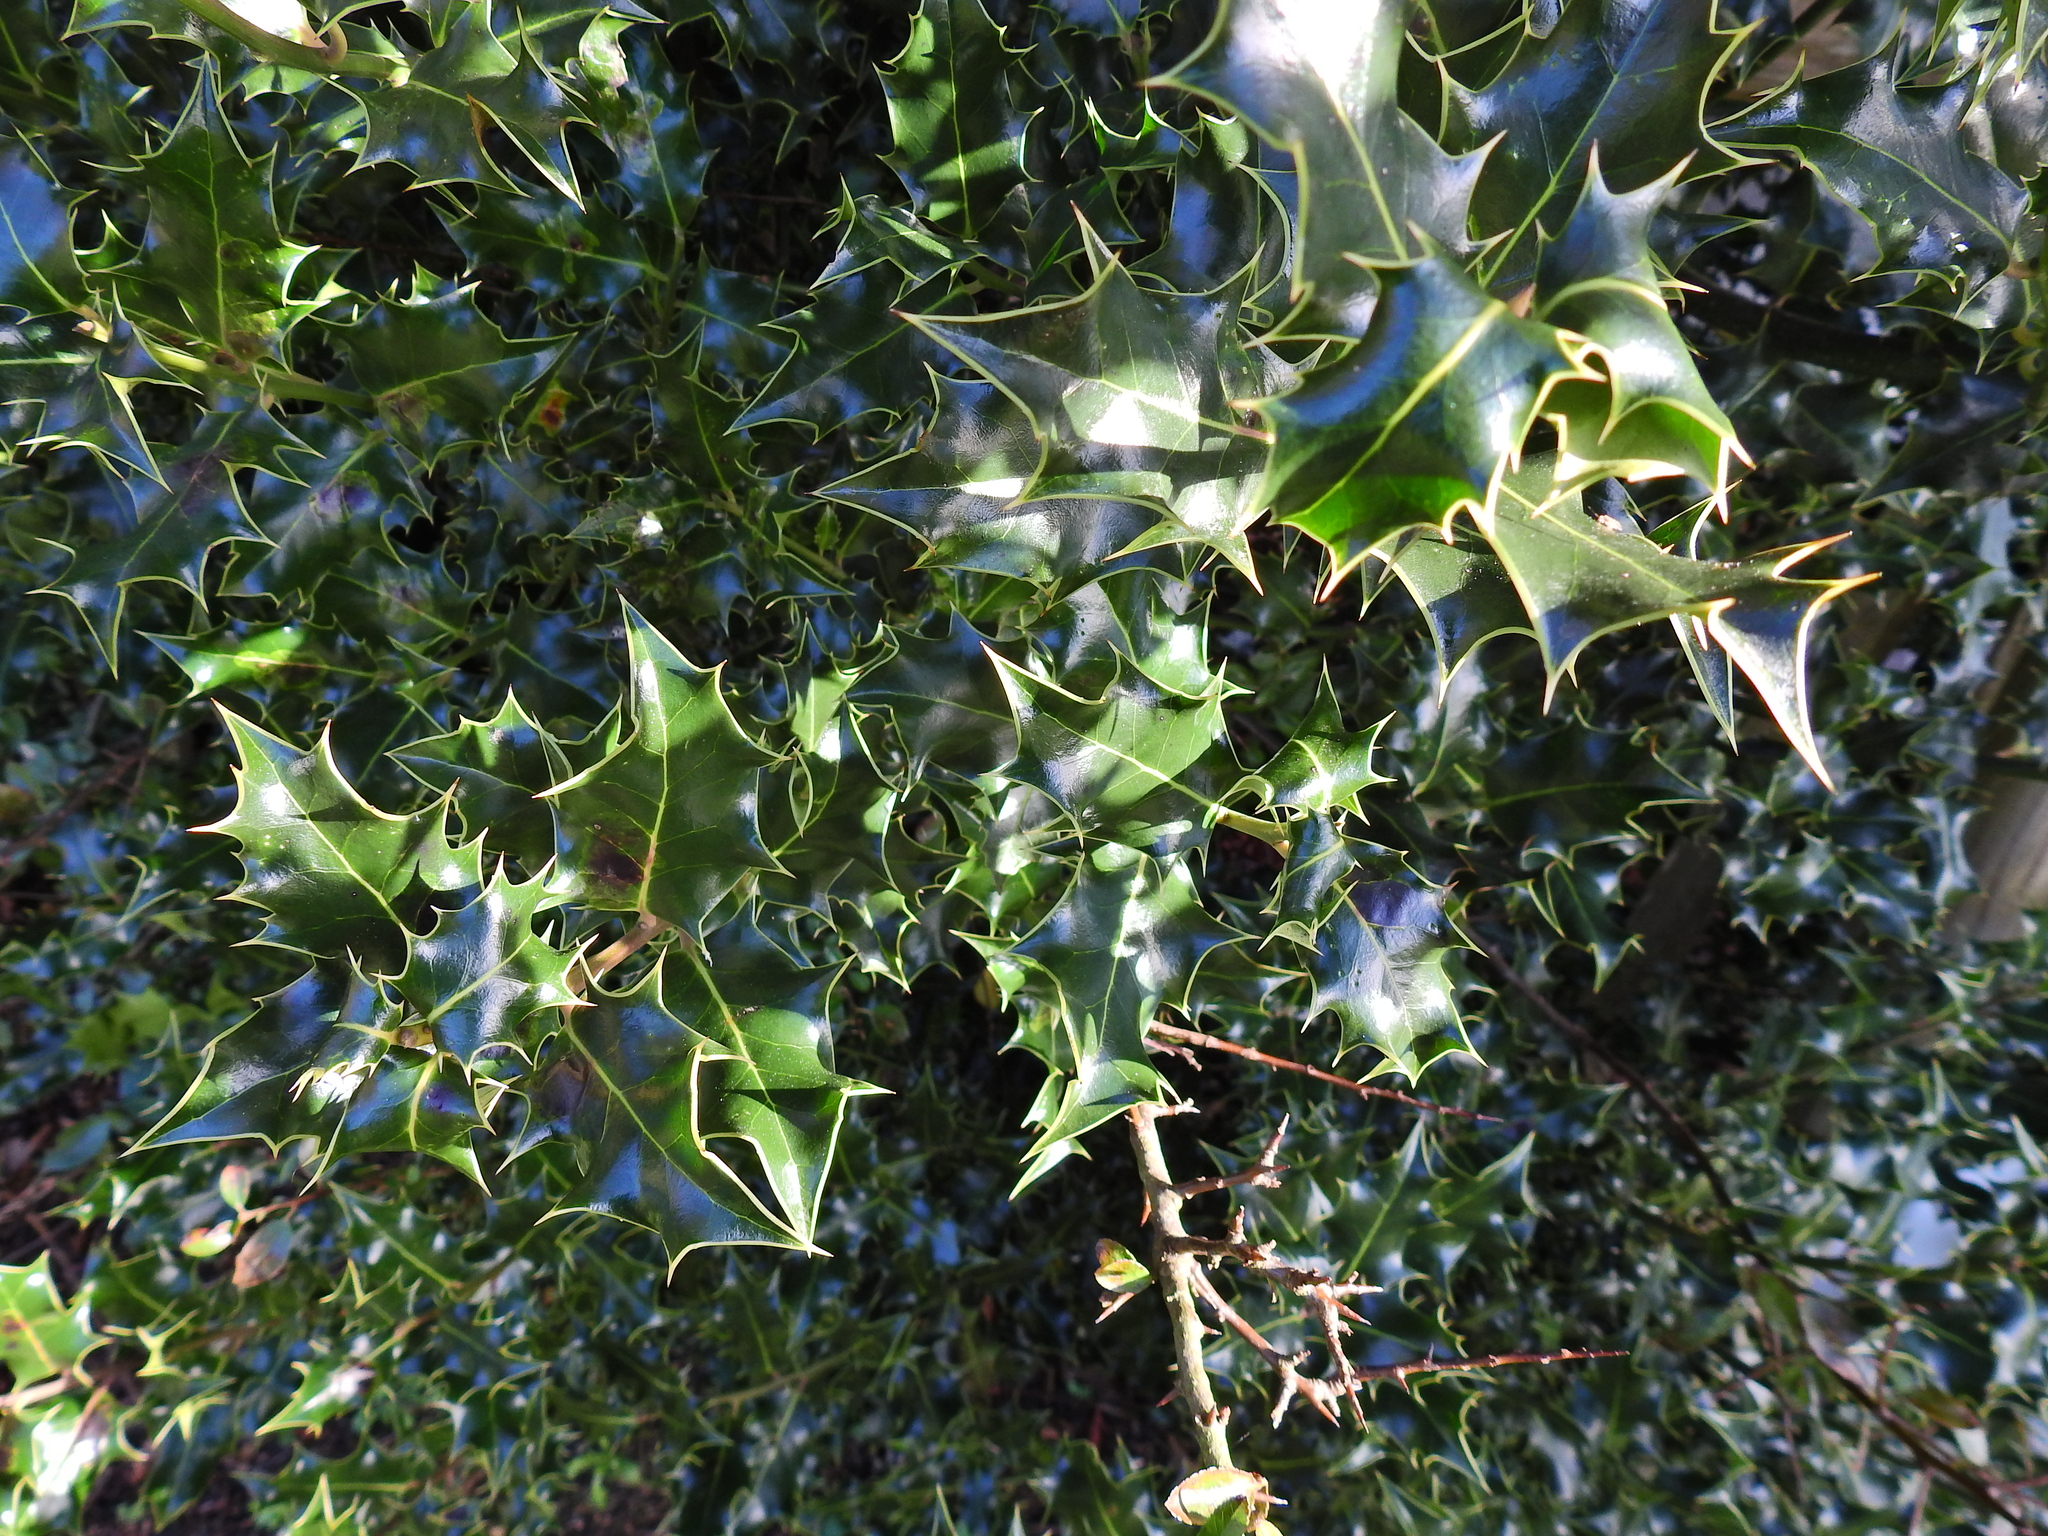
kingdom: Plantae
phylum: Tracheophyta
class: Magnoliopsida
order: Aquifoliales
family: Aquifoliaceae
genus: Ilex
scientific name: Ilex aquifolium
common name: English holly
